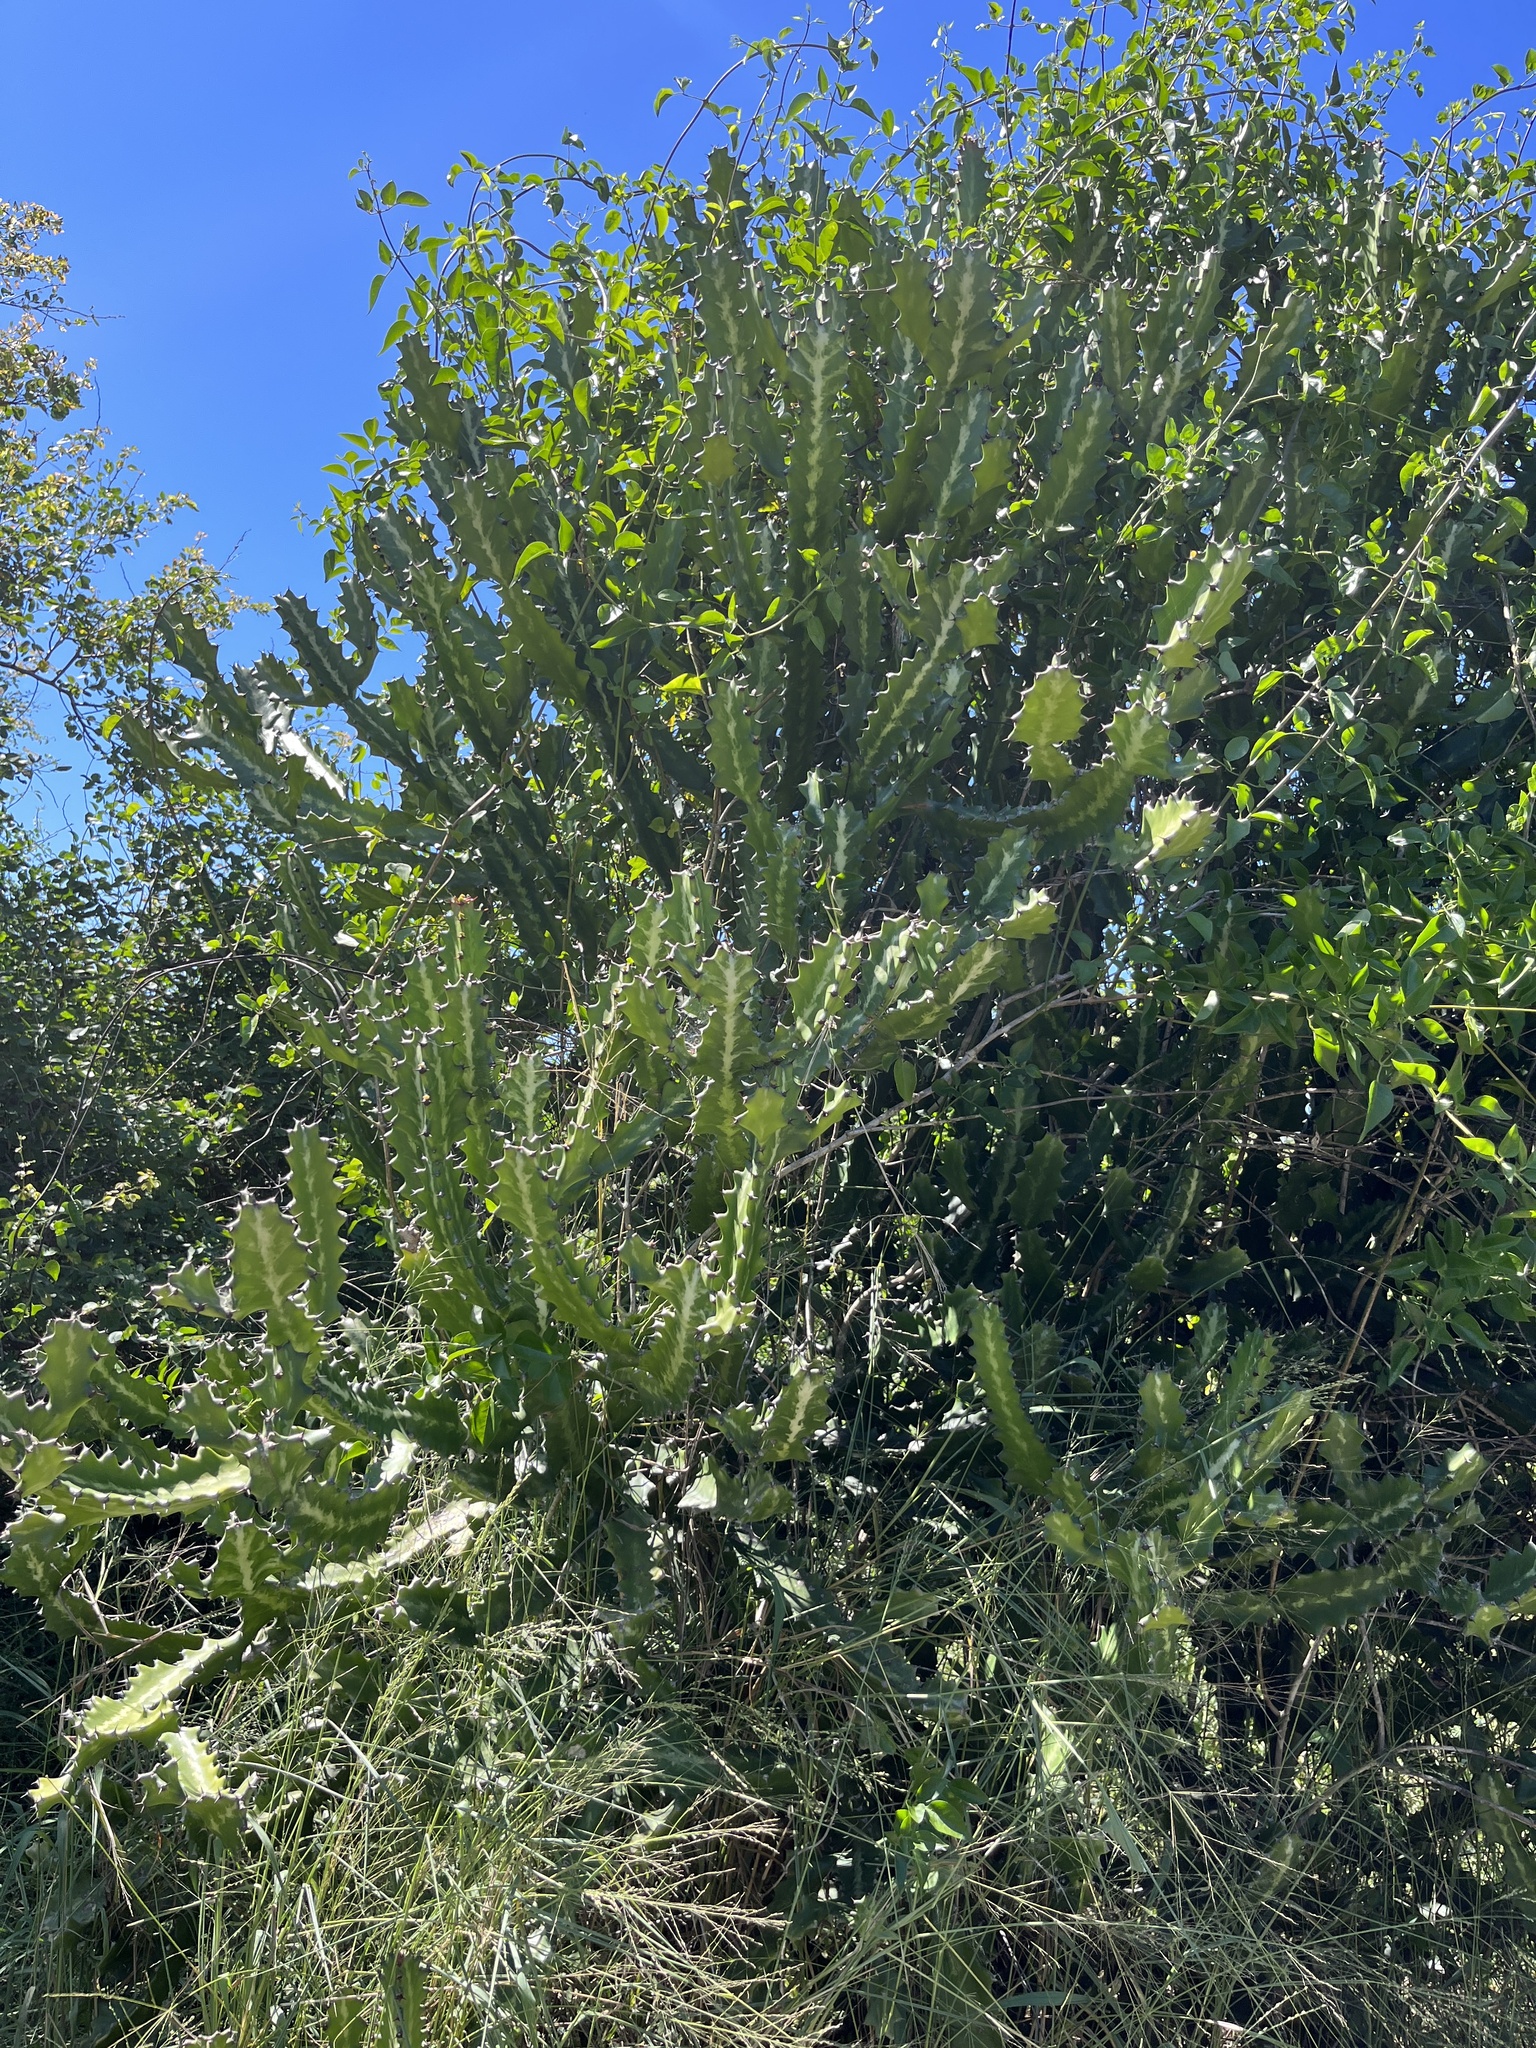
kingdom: Plantae
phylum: Tracheophyta
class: Magnoliopsida
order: Malpighiales
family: Euphorbiaceae
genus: Euphorbia
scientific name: Euphorbia lactea
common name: Mottled spurge
